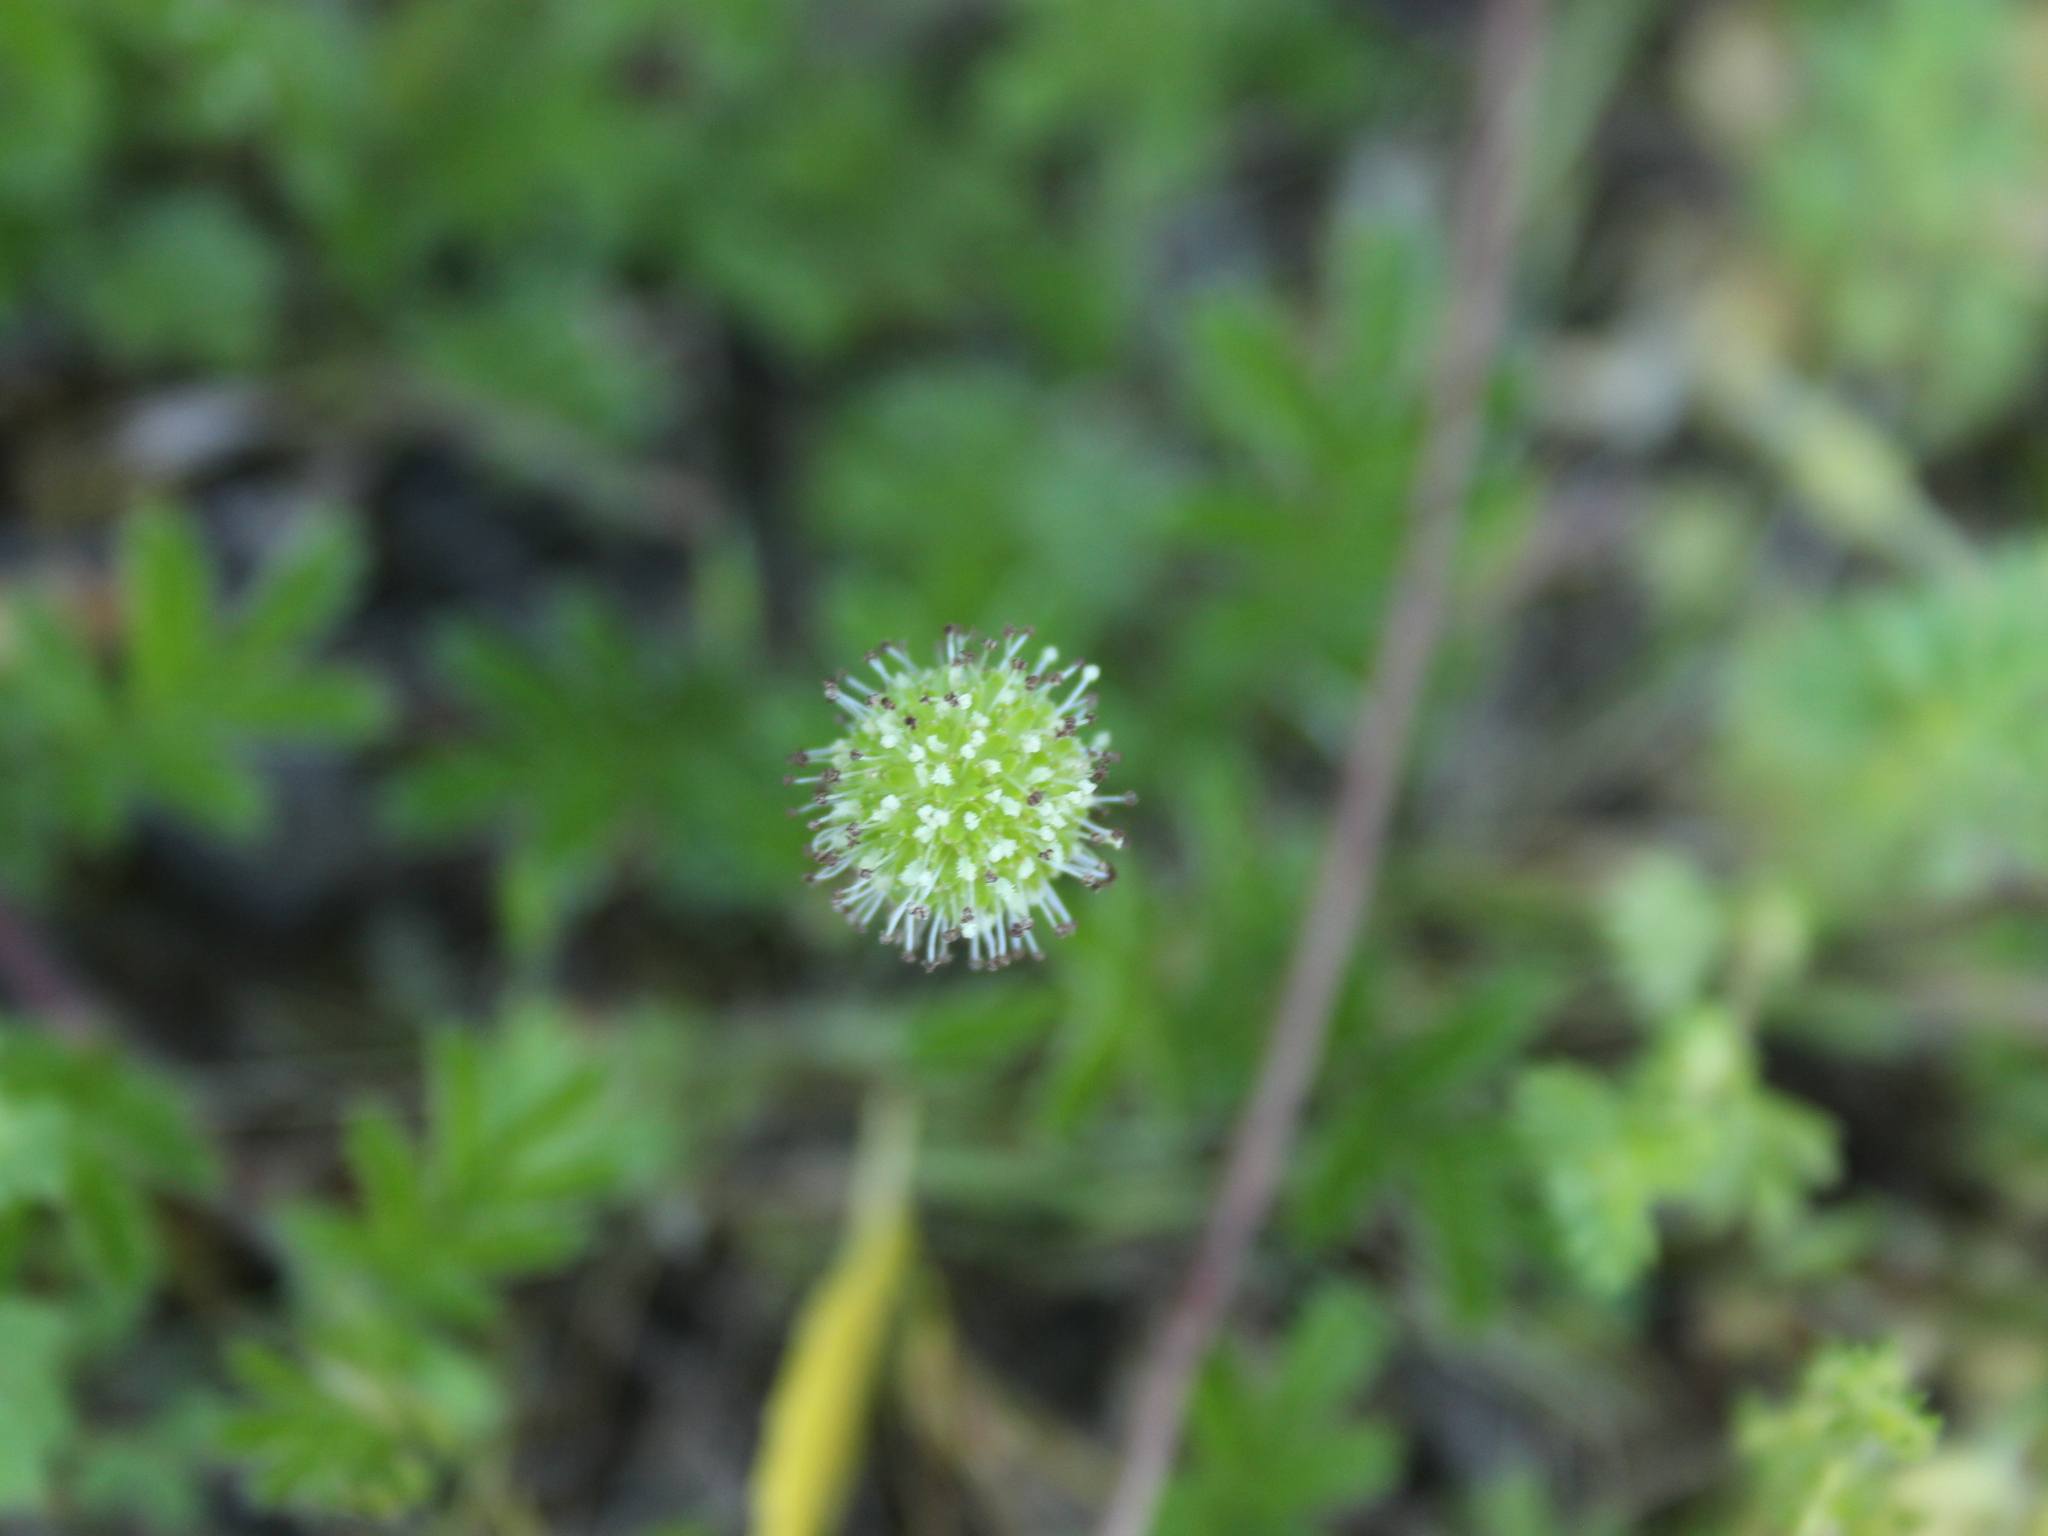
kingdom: Plantae
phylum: Tracheophyta
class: Magnoliopsida
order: Rosales
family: Rosaceae
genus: Acaena
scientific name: Acaena novae-zelandiae
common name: Pirri-pirri-bur
